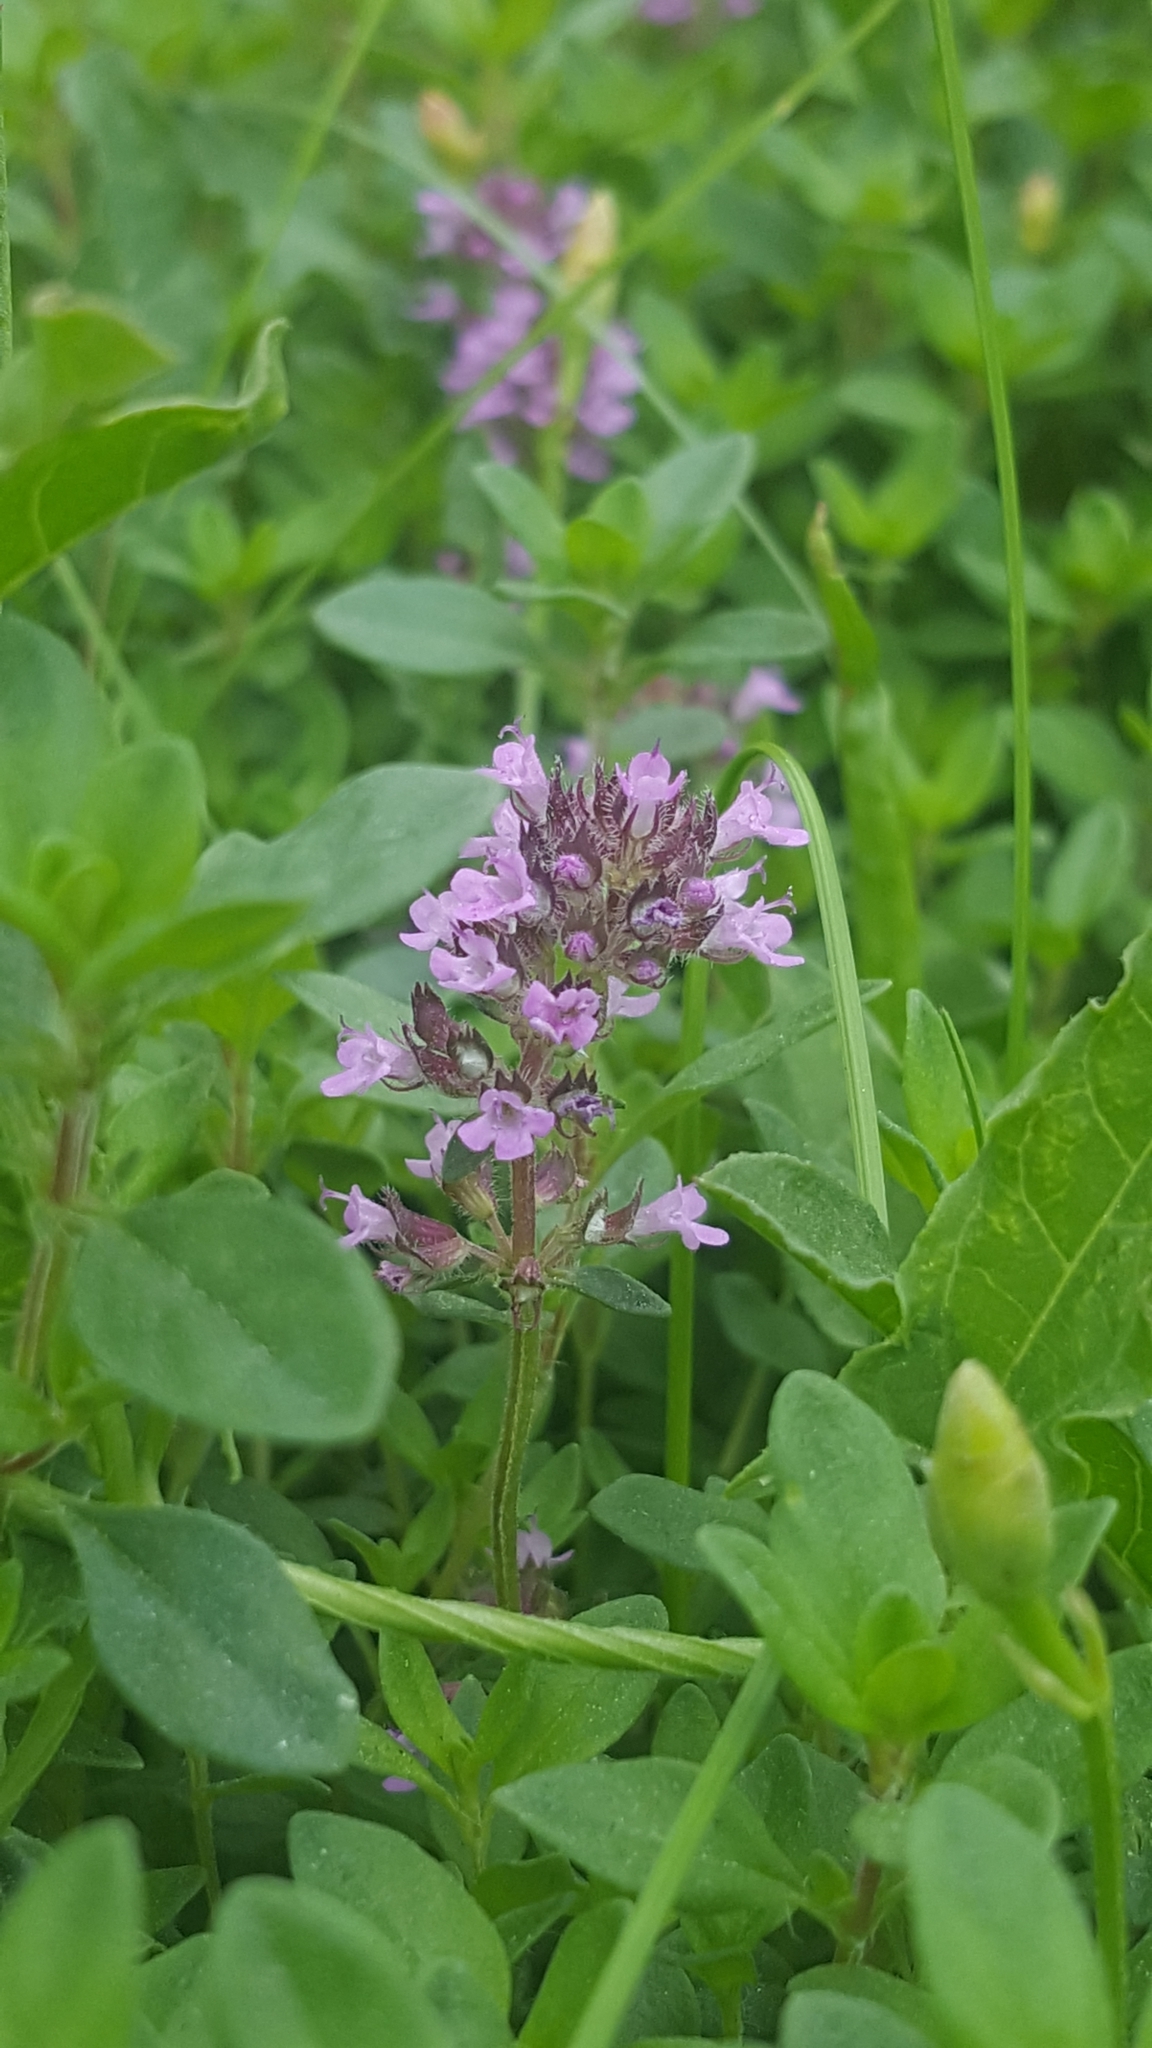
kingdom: Plantae
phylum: Tracheophyta
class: Magnoliopsida
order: Lamiales
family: Lamiaceae
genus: Thymus
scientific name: Thymus pulegioides
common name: Large thyme
